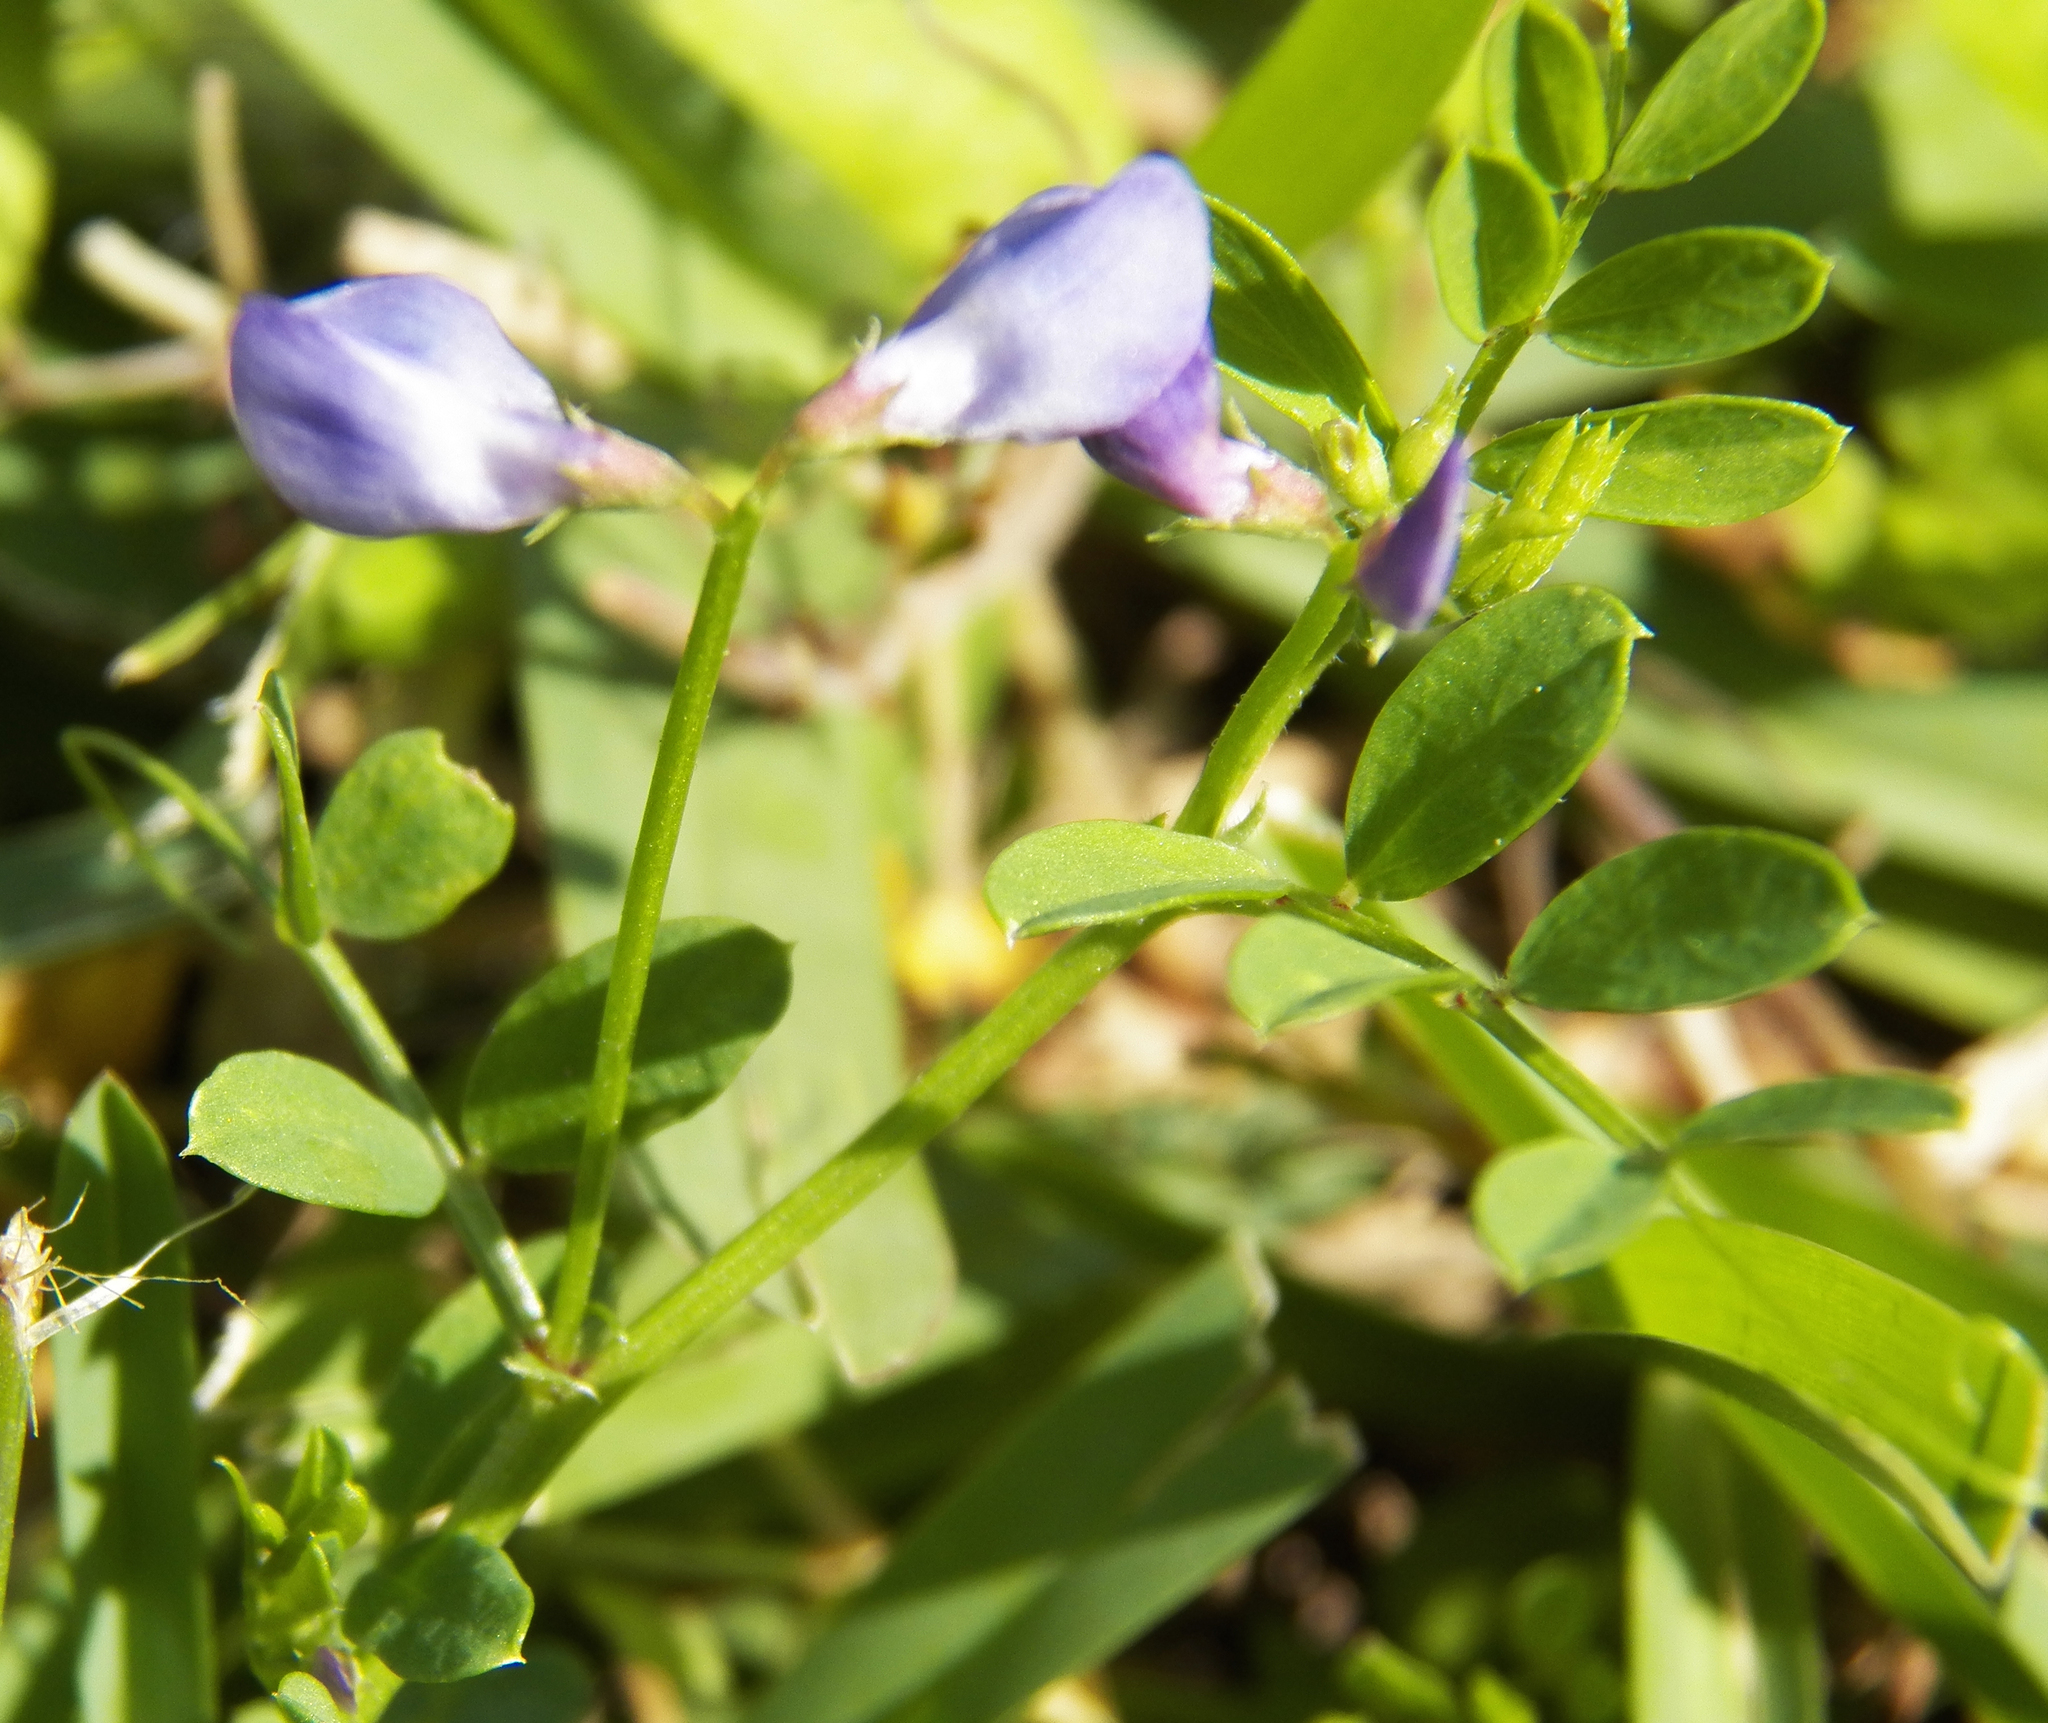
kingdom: Plantae
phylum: Tracheophyta
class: Magnoliopsida
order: Fabales
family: Fabaceae
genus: Vicia
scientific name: Vicia ludoviciana
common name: Louisiana vetch
